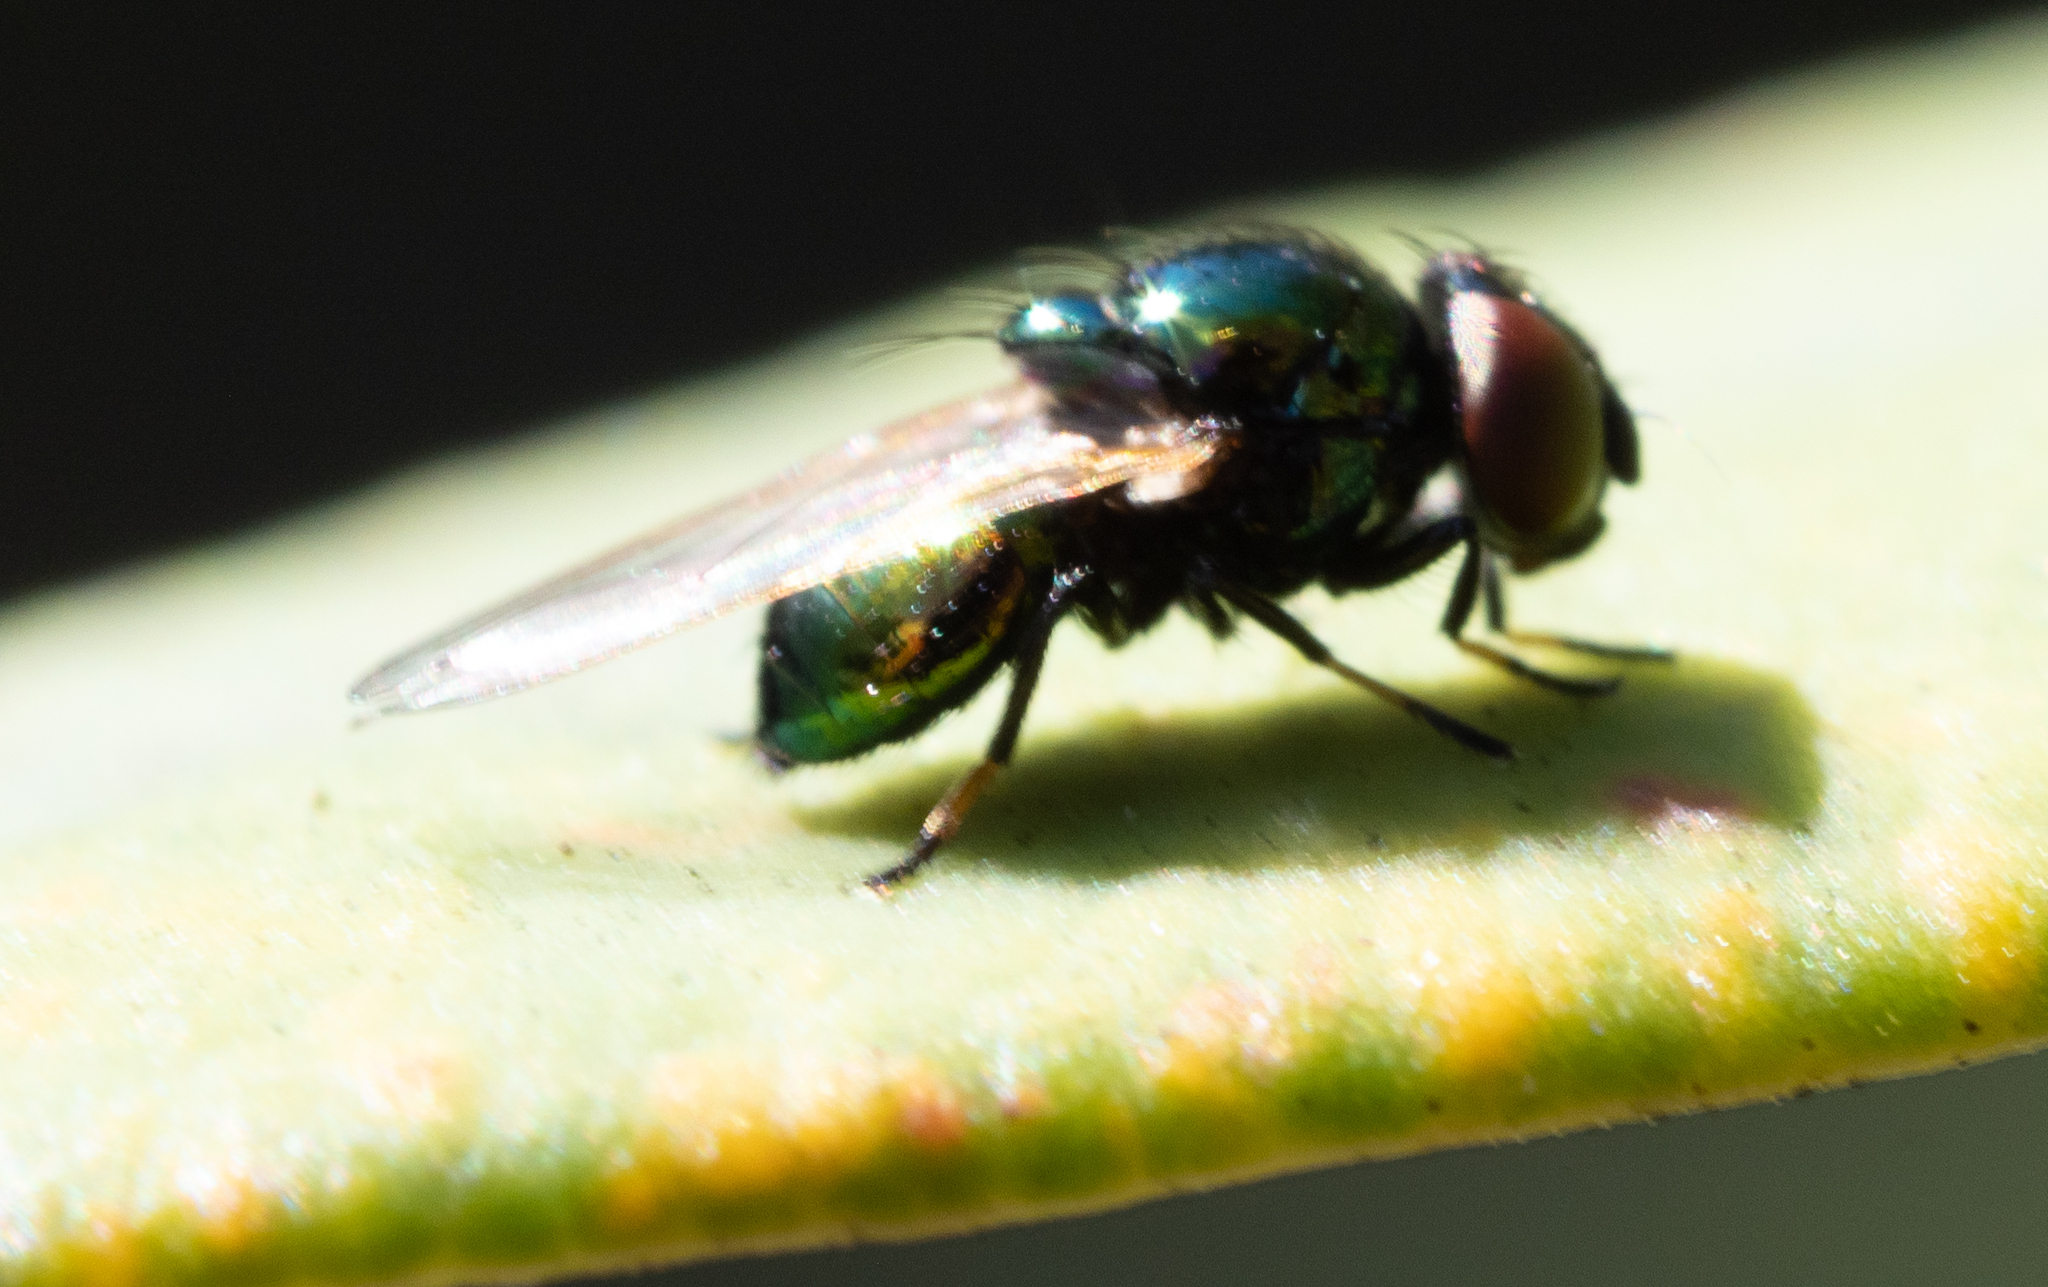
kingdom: Animalia
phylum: Arthropoda
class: Insecta
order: Diptera
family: Lonchaeidae
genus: Lamprolonchaea
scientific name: Lamprolonchaea brouniana
